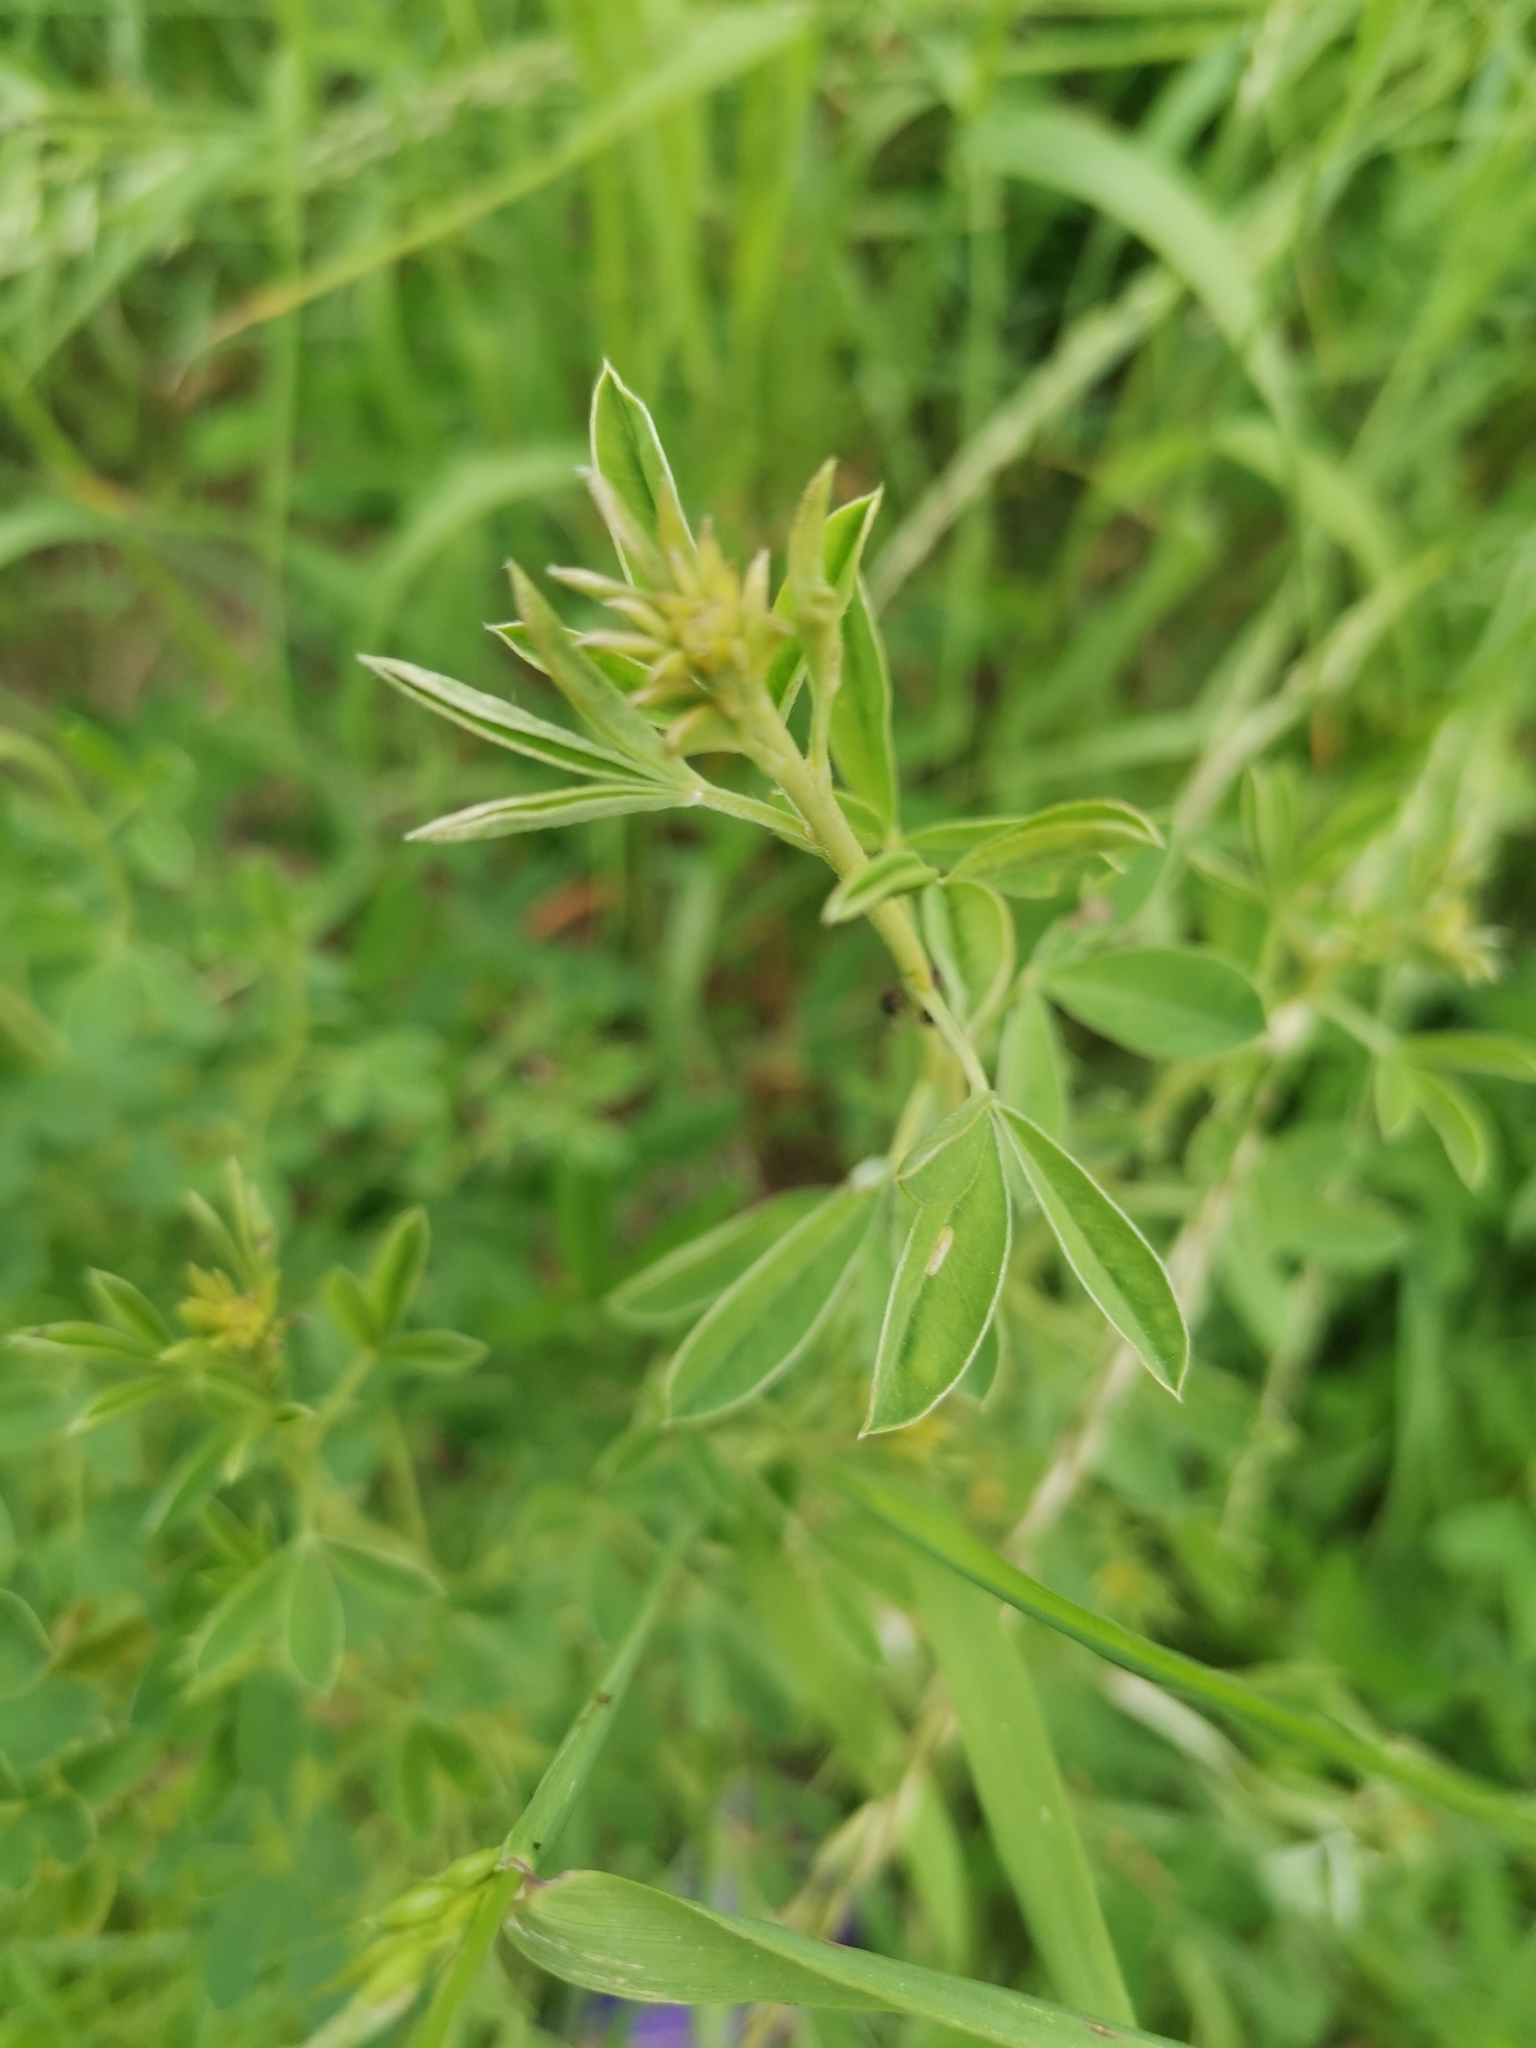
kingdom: Plantae
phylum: Tracheophyta
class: Magnoliopsida
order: Fabales
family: Fabaceae
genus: Chamaecytisus
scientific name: Chamaecytisus ruthenicus
